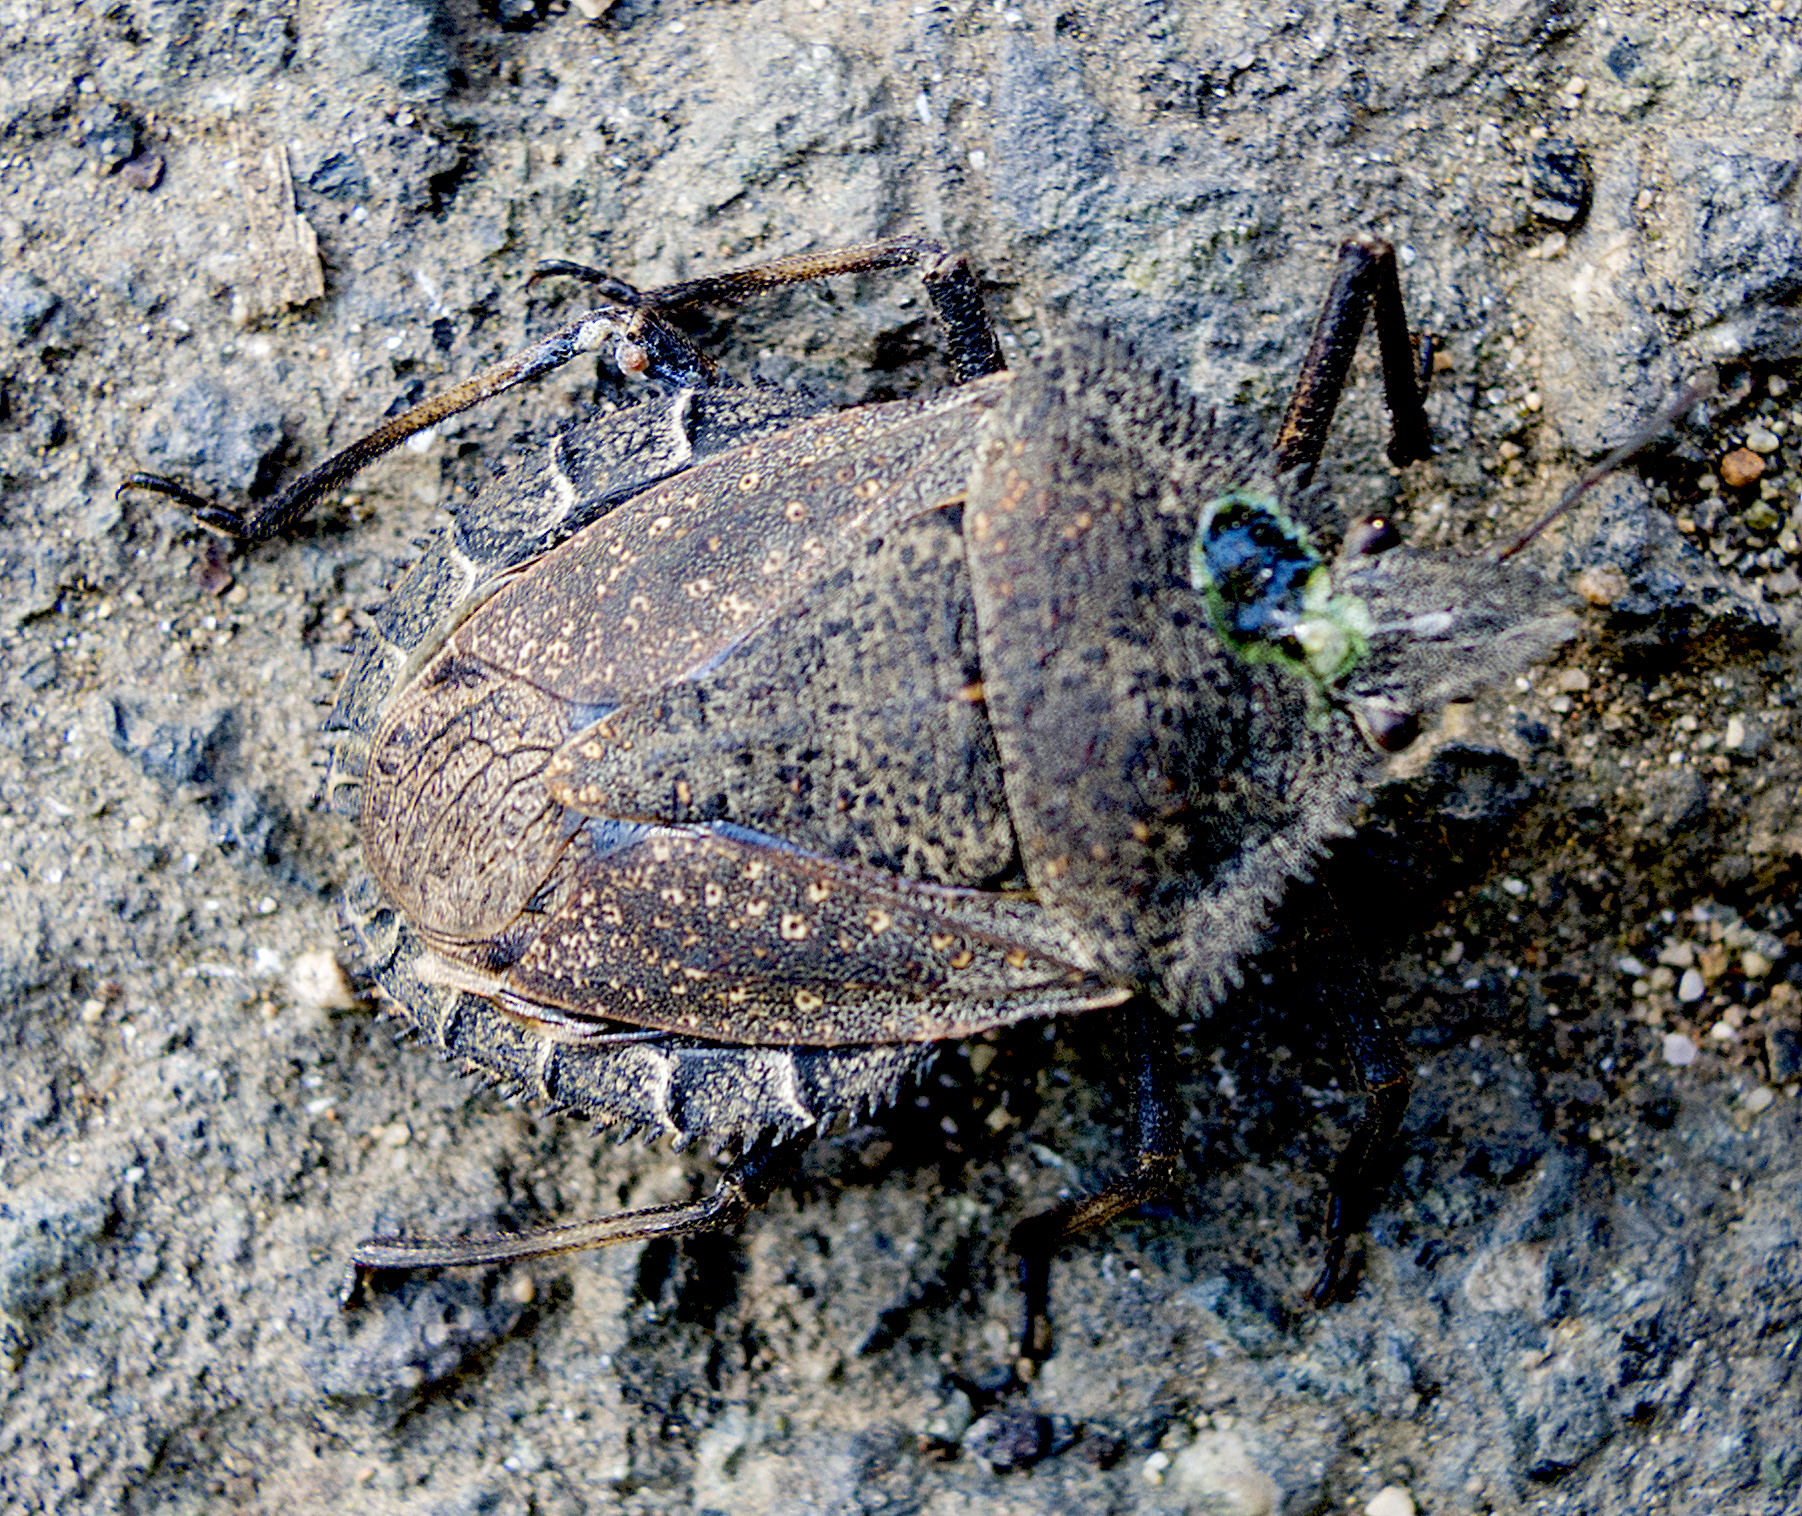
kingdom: Animalia
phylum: Arthropoda
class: Insecta
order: Hemiptera
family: Pentatomidae
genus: Mustha
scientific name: Mustha spinosula
